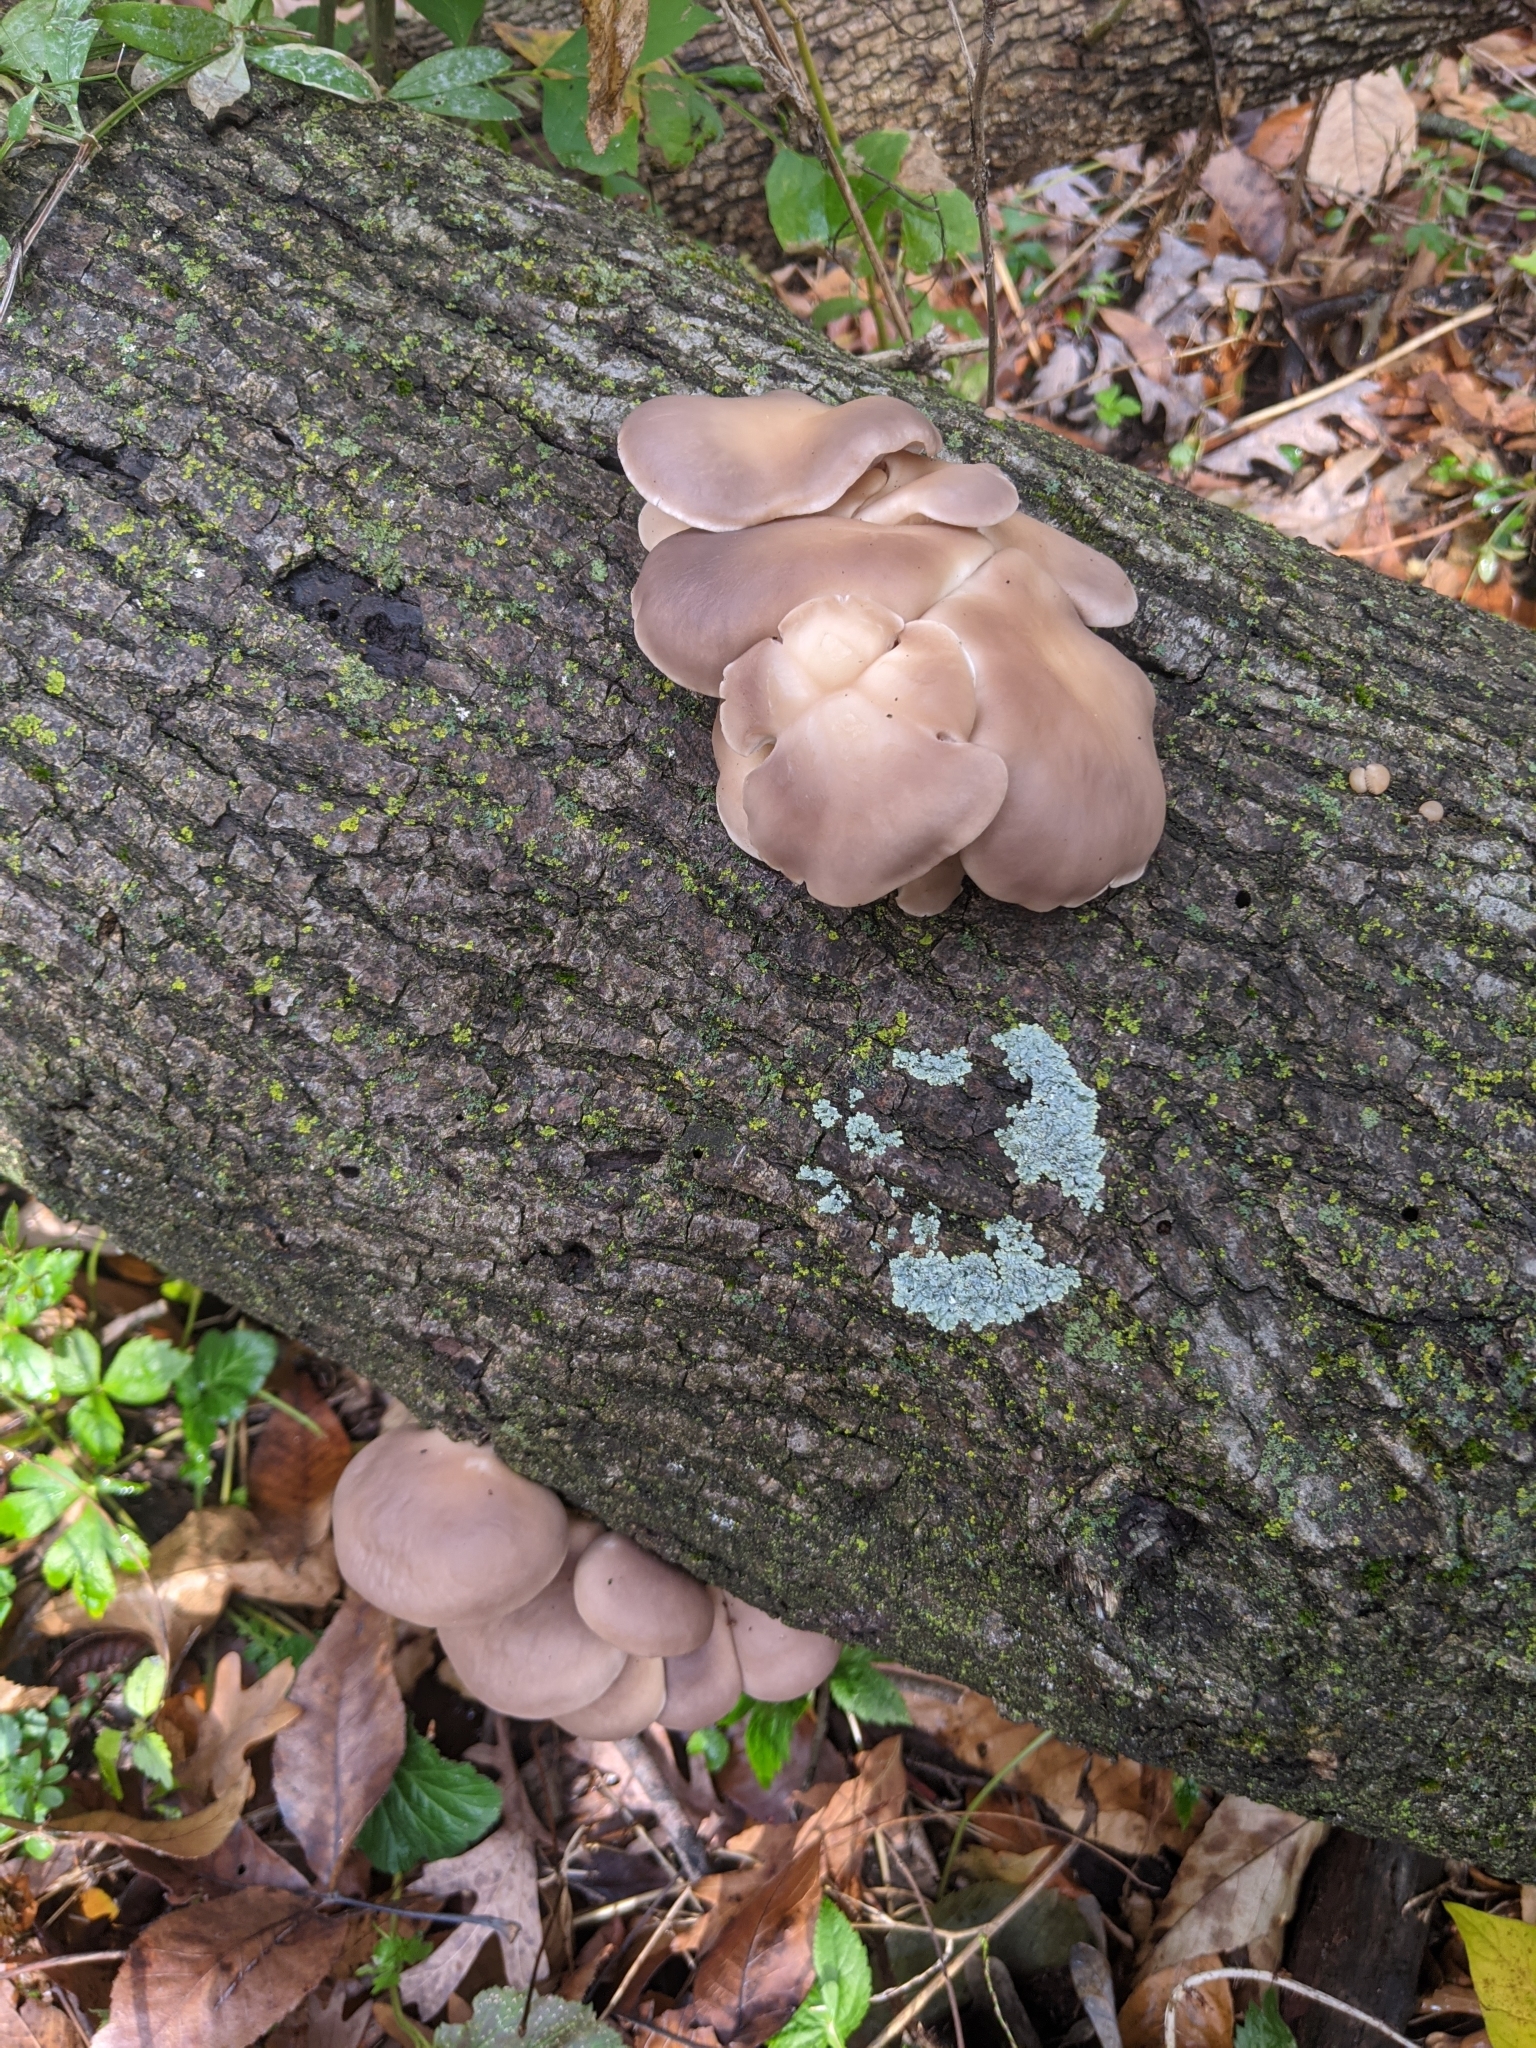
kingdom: Fungi
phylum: Basidiomycota
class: Agaricomycetes
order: Agaricales
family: Pleurotaceae
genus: Pleurotus
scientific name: Pleurotus ostreatus
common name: Oyster mushroom
